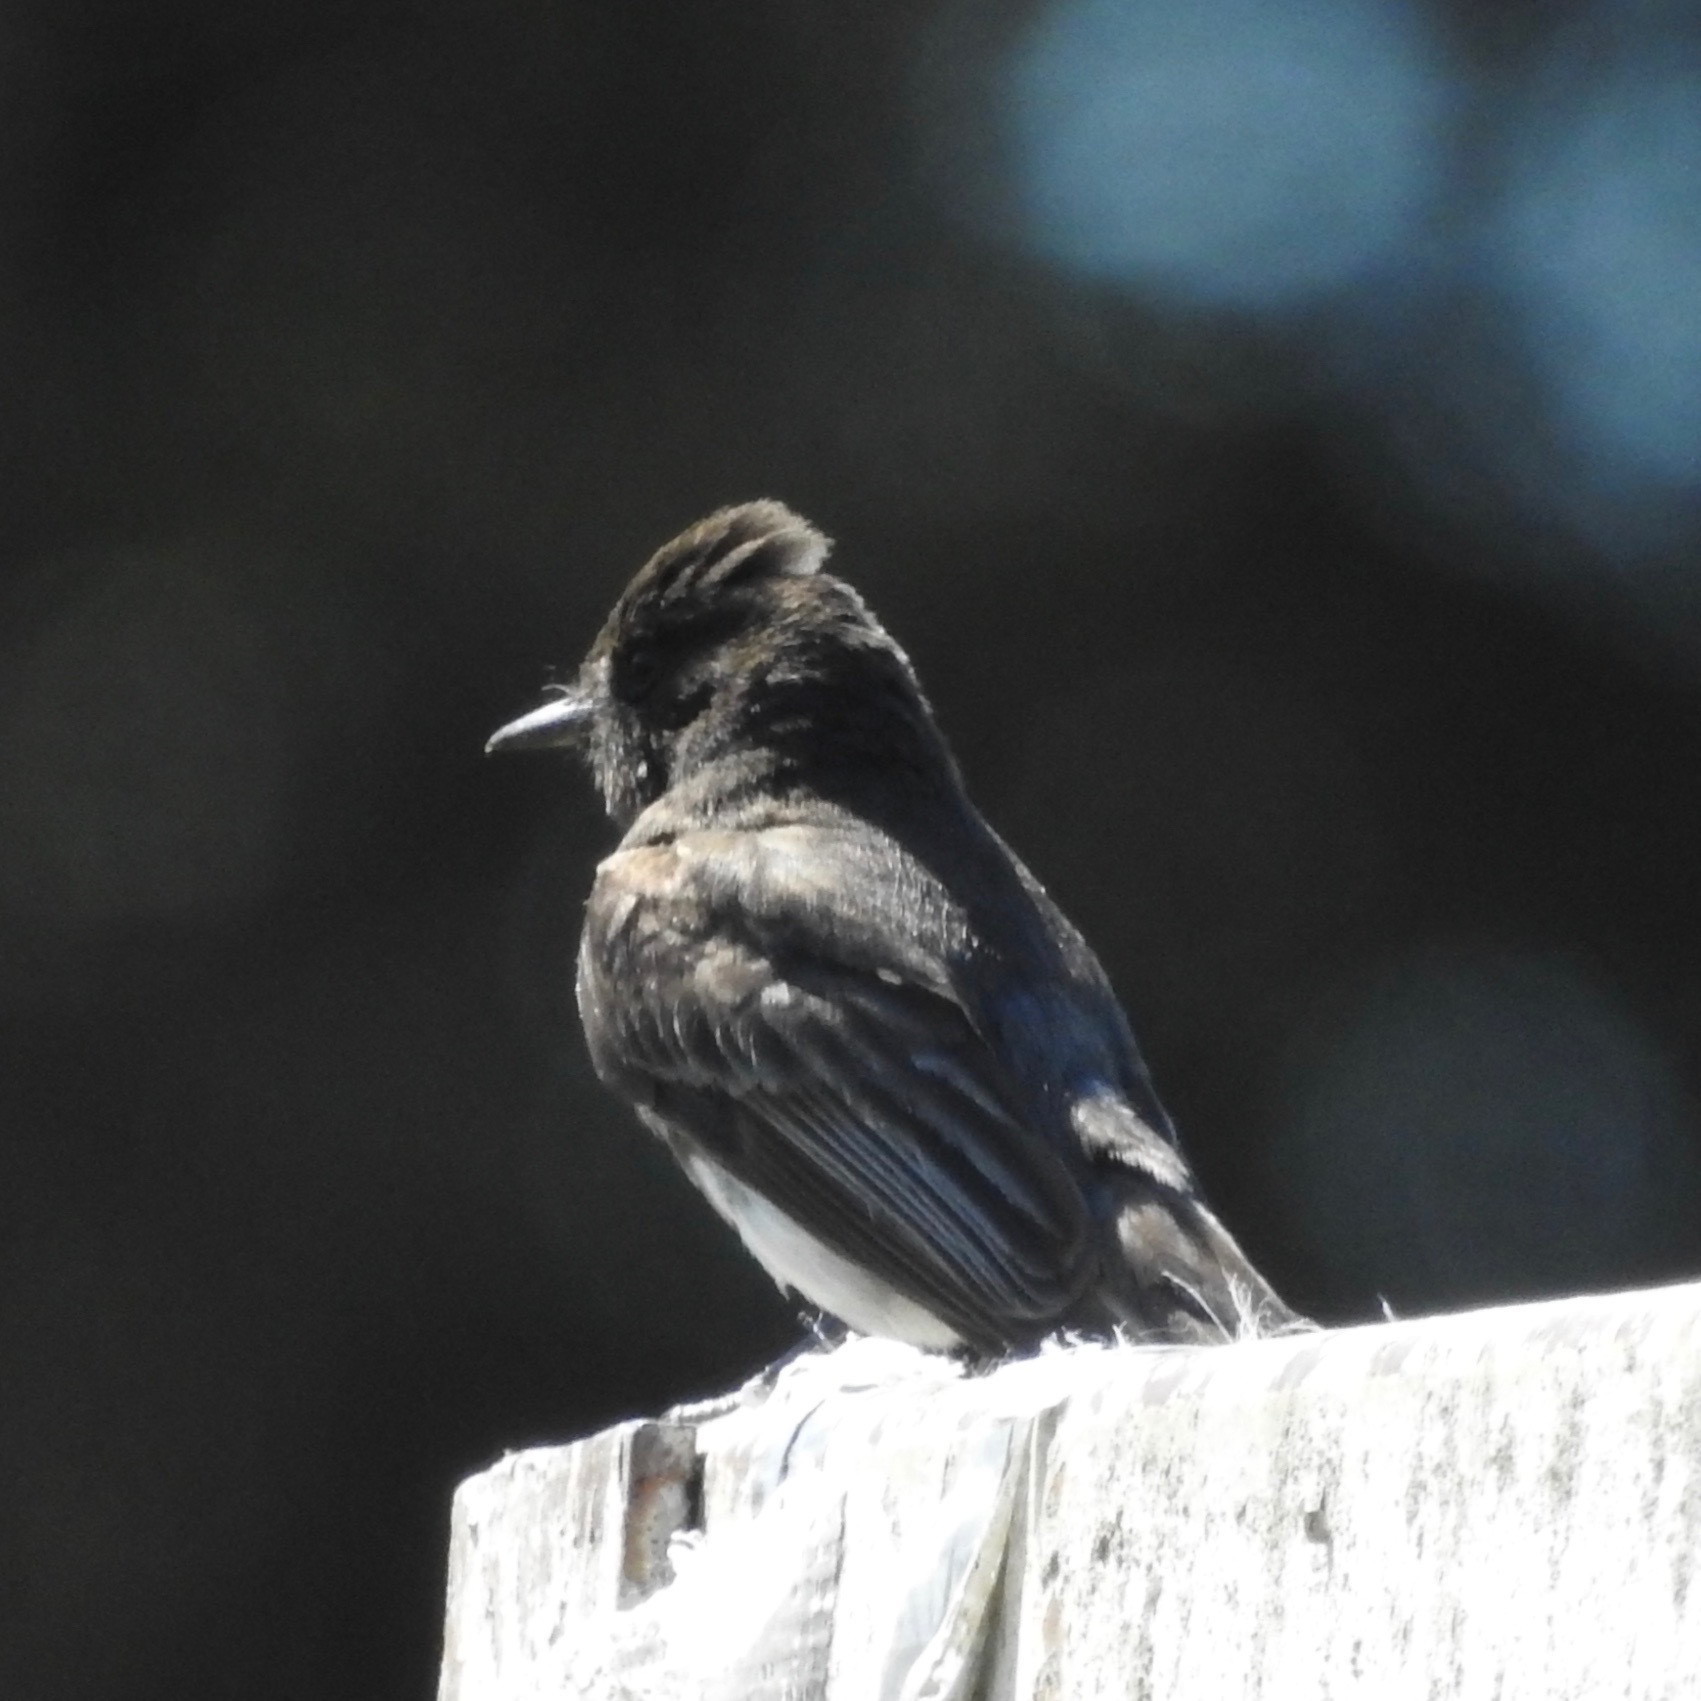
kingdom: Animalia
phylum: Chordata
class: Aves
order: Passeriformes
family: Tyrannidae
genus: Sayornis
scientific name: Sayornis nigricans
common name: Black phoebe
